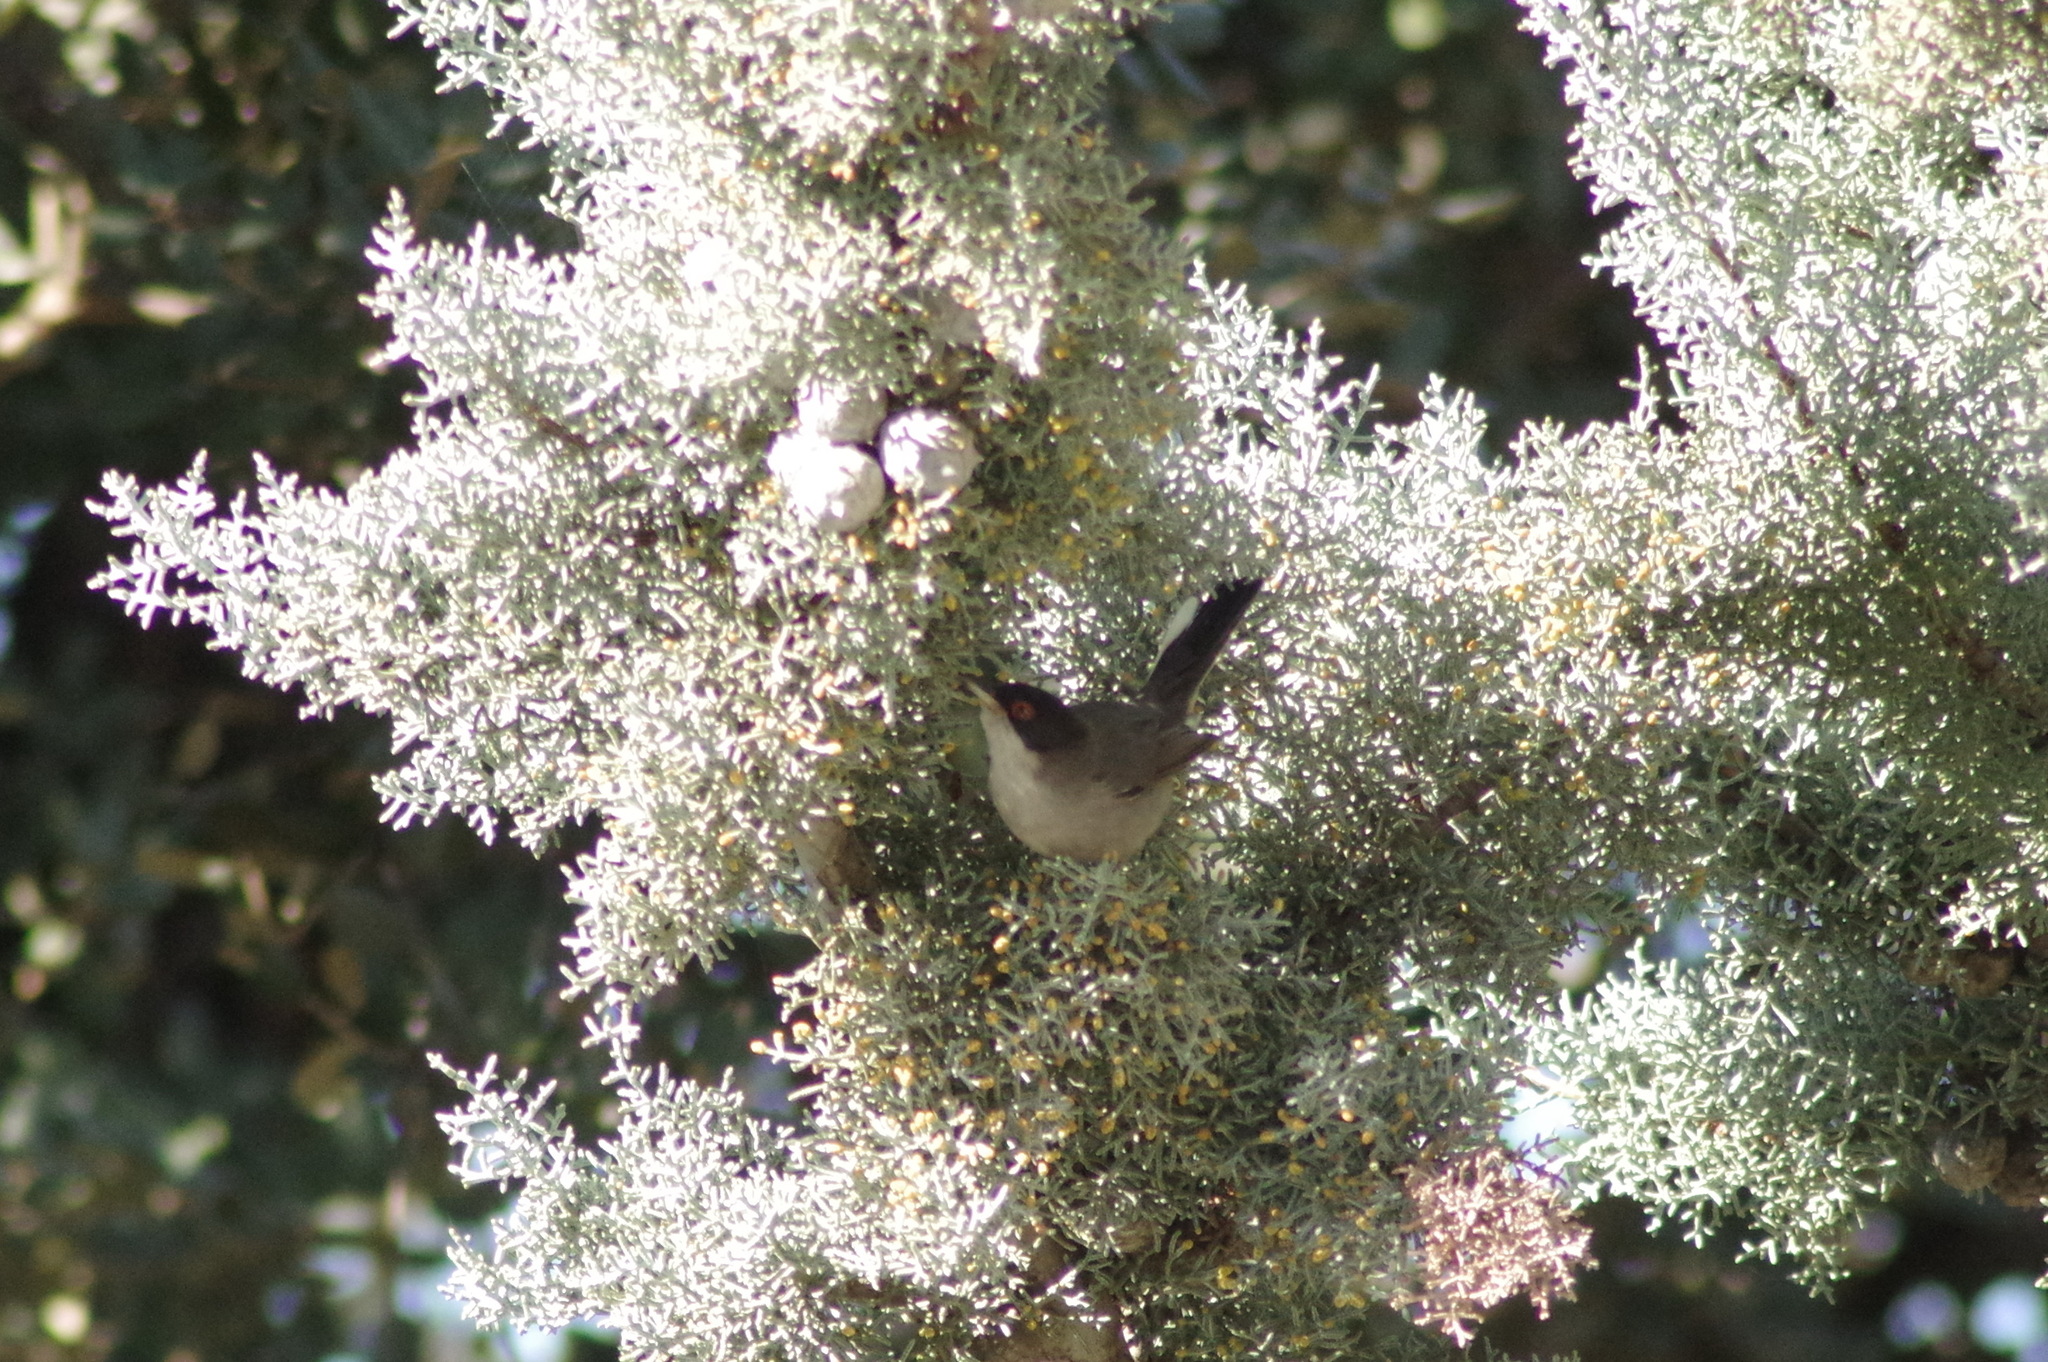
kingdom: Animalia
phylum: Chordata
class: Aves
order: Passeriformes
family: Sylviidae
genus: Curruca
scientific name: Curruca melanocephala
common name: Sardinian warbler
